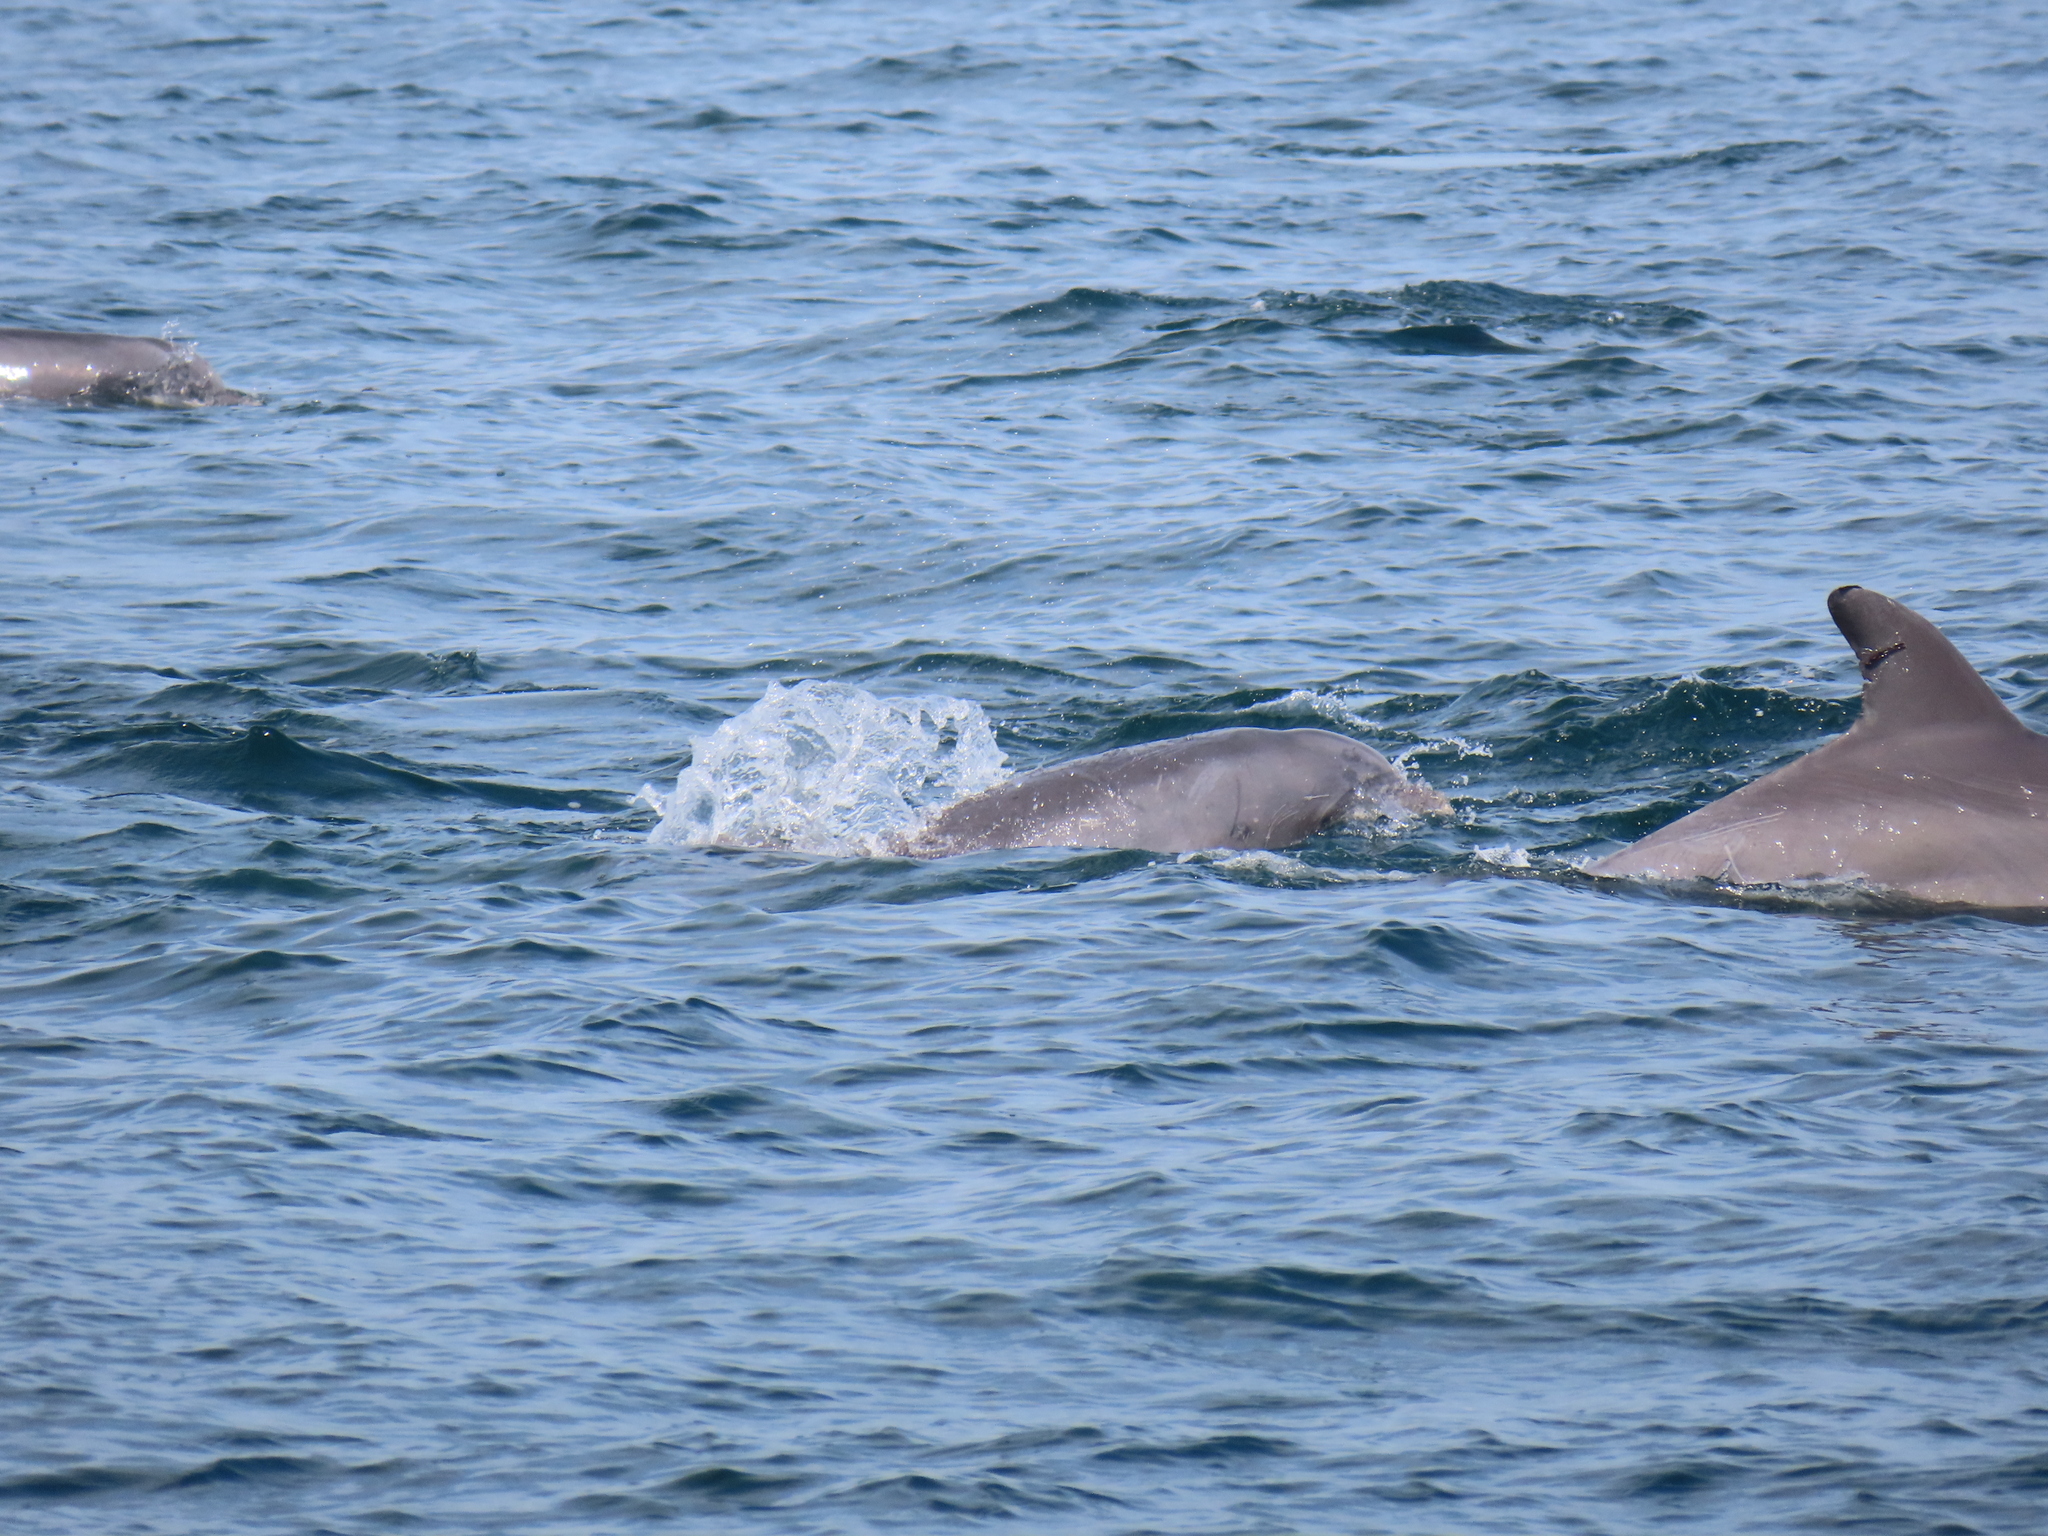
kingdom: Animalia
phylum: Chordata
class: Mammalia
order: Cetacea
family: Delphinidae
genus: Tursiops
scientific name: Tursiops truncatus
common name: Bottlenose dolphin
